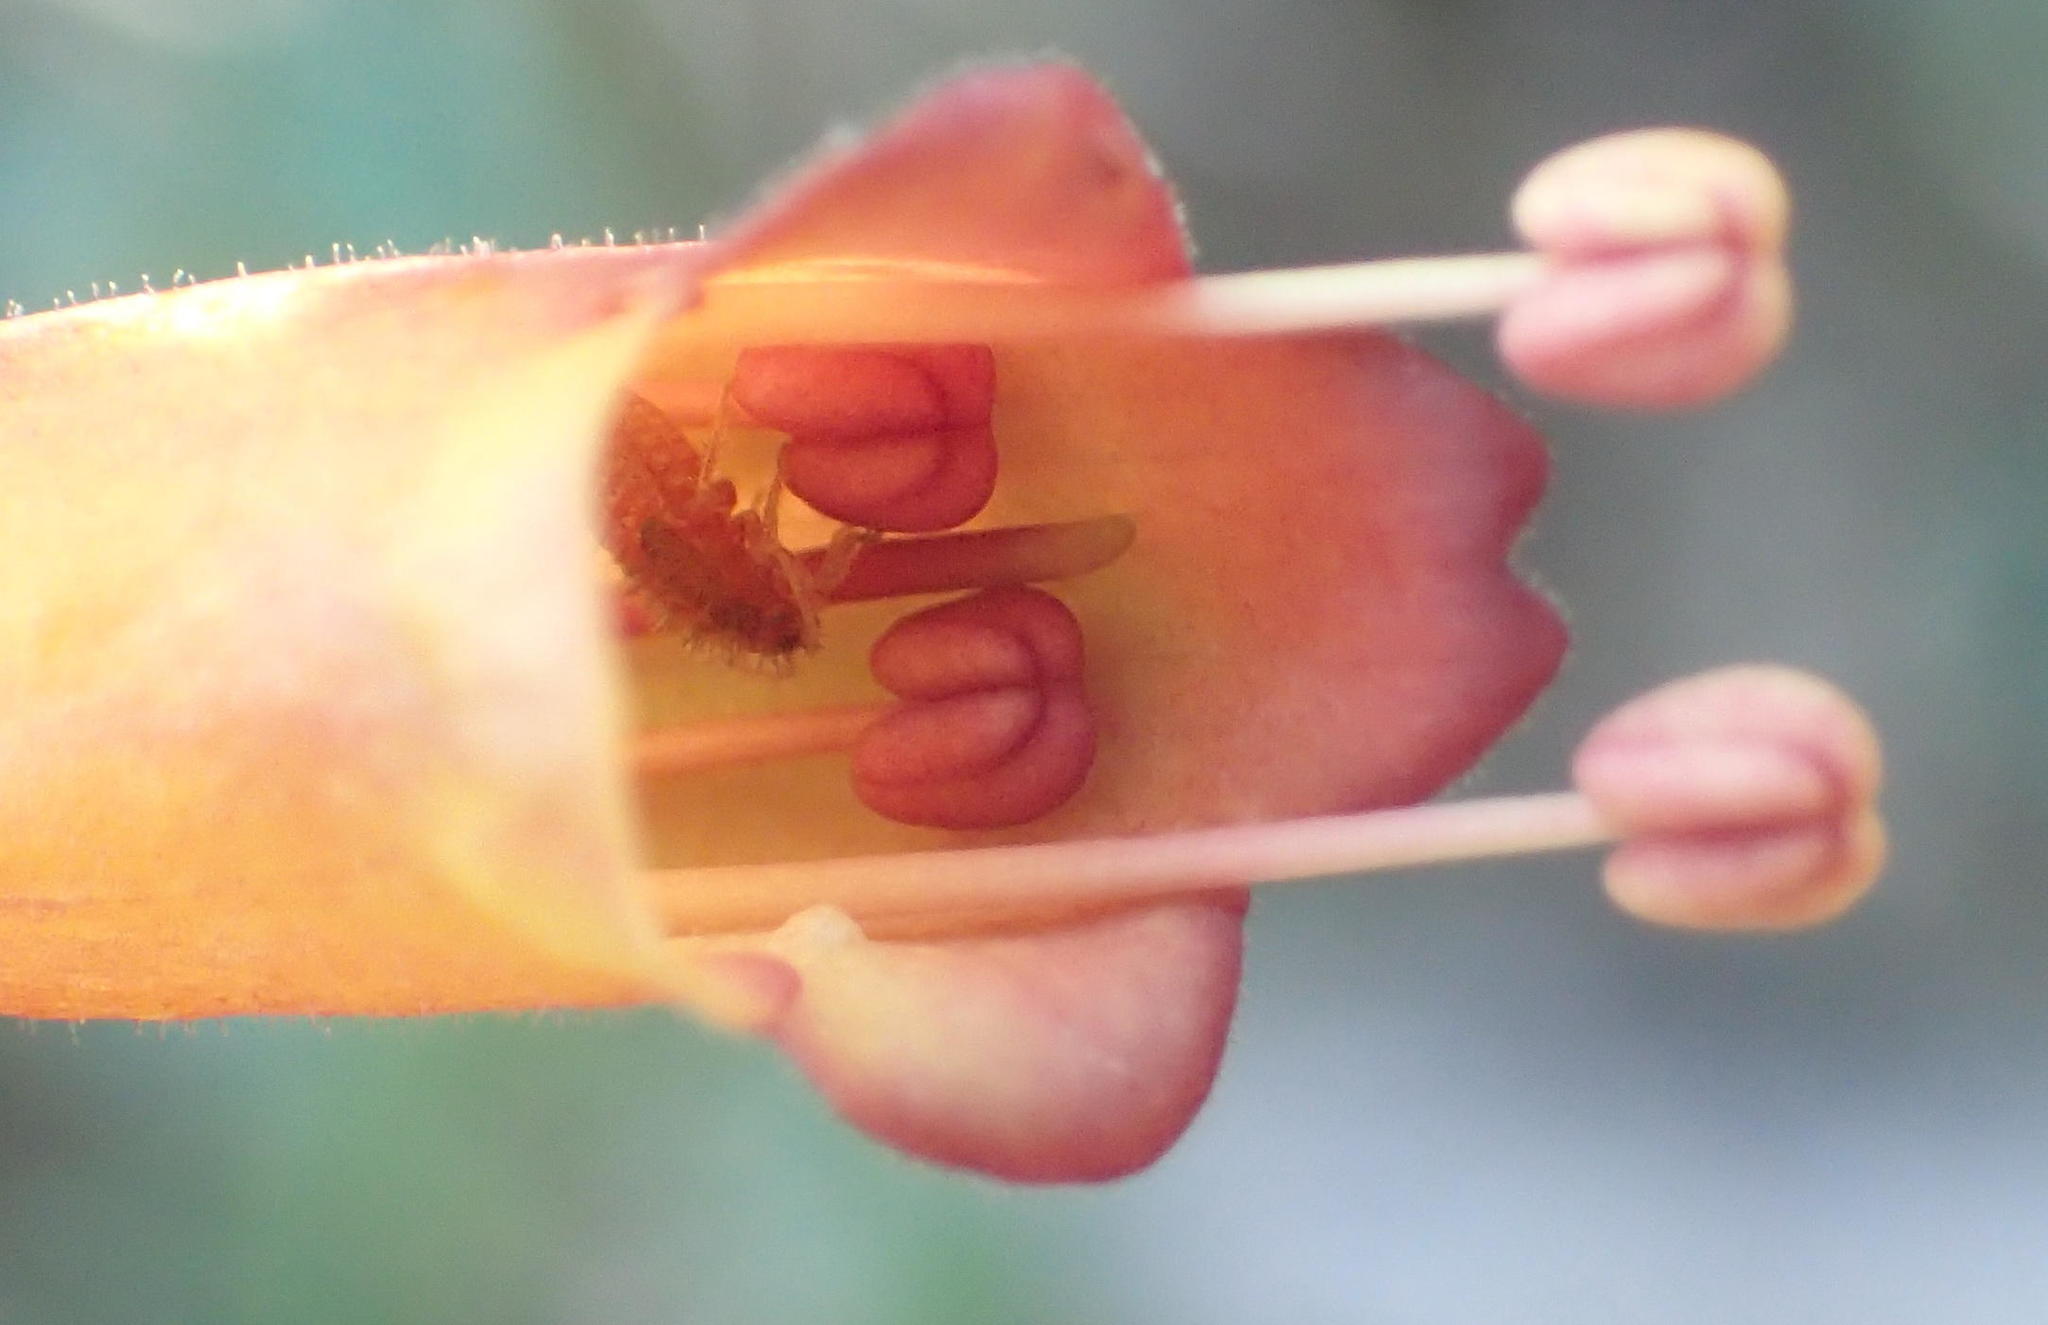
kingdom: Plantae
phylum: Tracheophyta
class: Magnoliopsida
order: Lamiales
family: Stilbaceae
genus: Halleria
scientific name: Halleria lucida
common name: Tree fuschia
